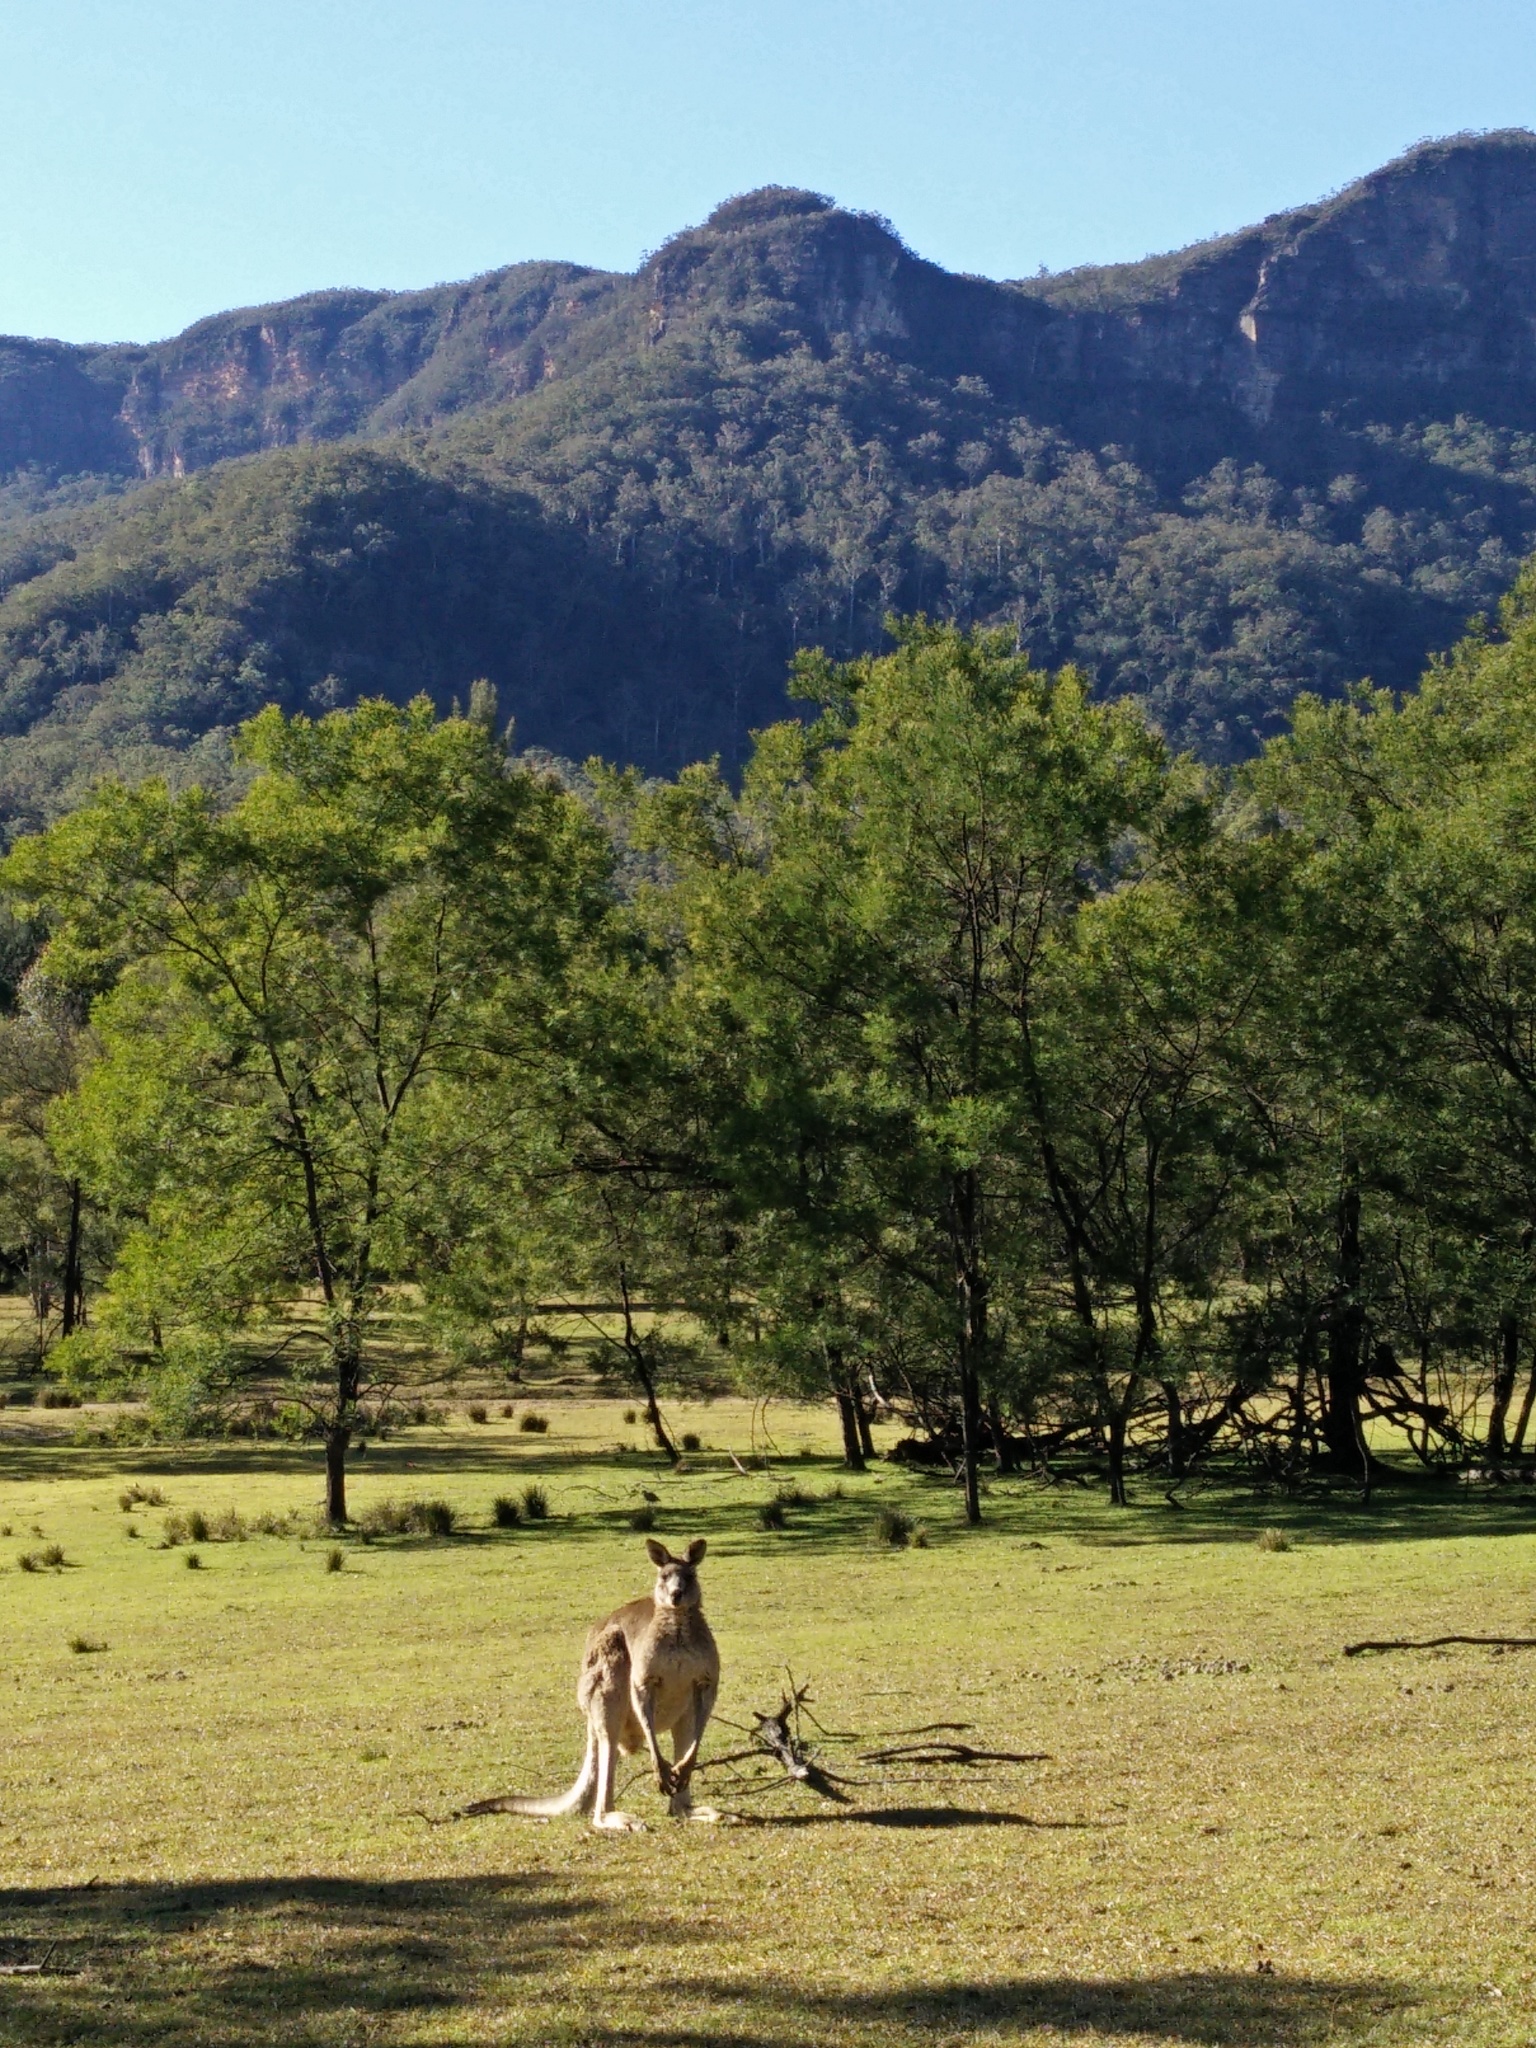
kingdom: Animalia
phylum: Chordata
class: Mammalia
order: Diprotodontia
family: Macropodidae
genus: Macropus
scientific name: Macropus giganteus
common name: Eastern grey kangaroo
